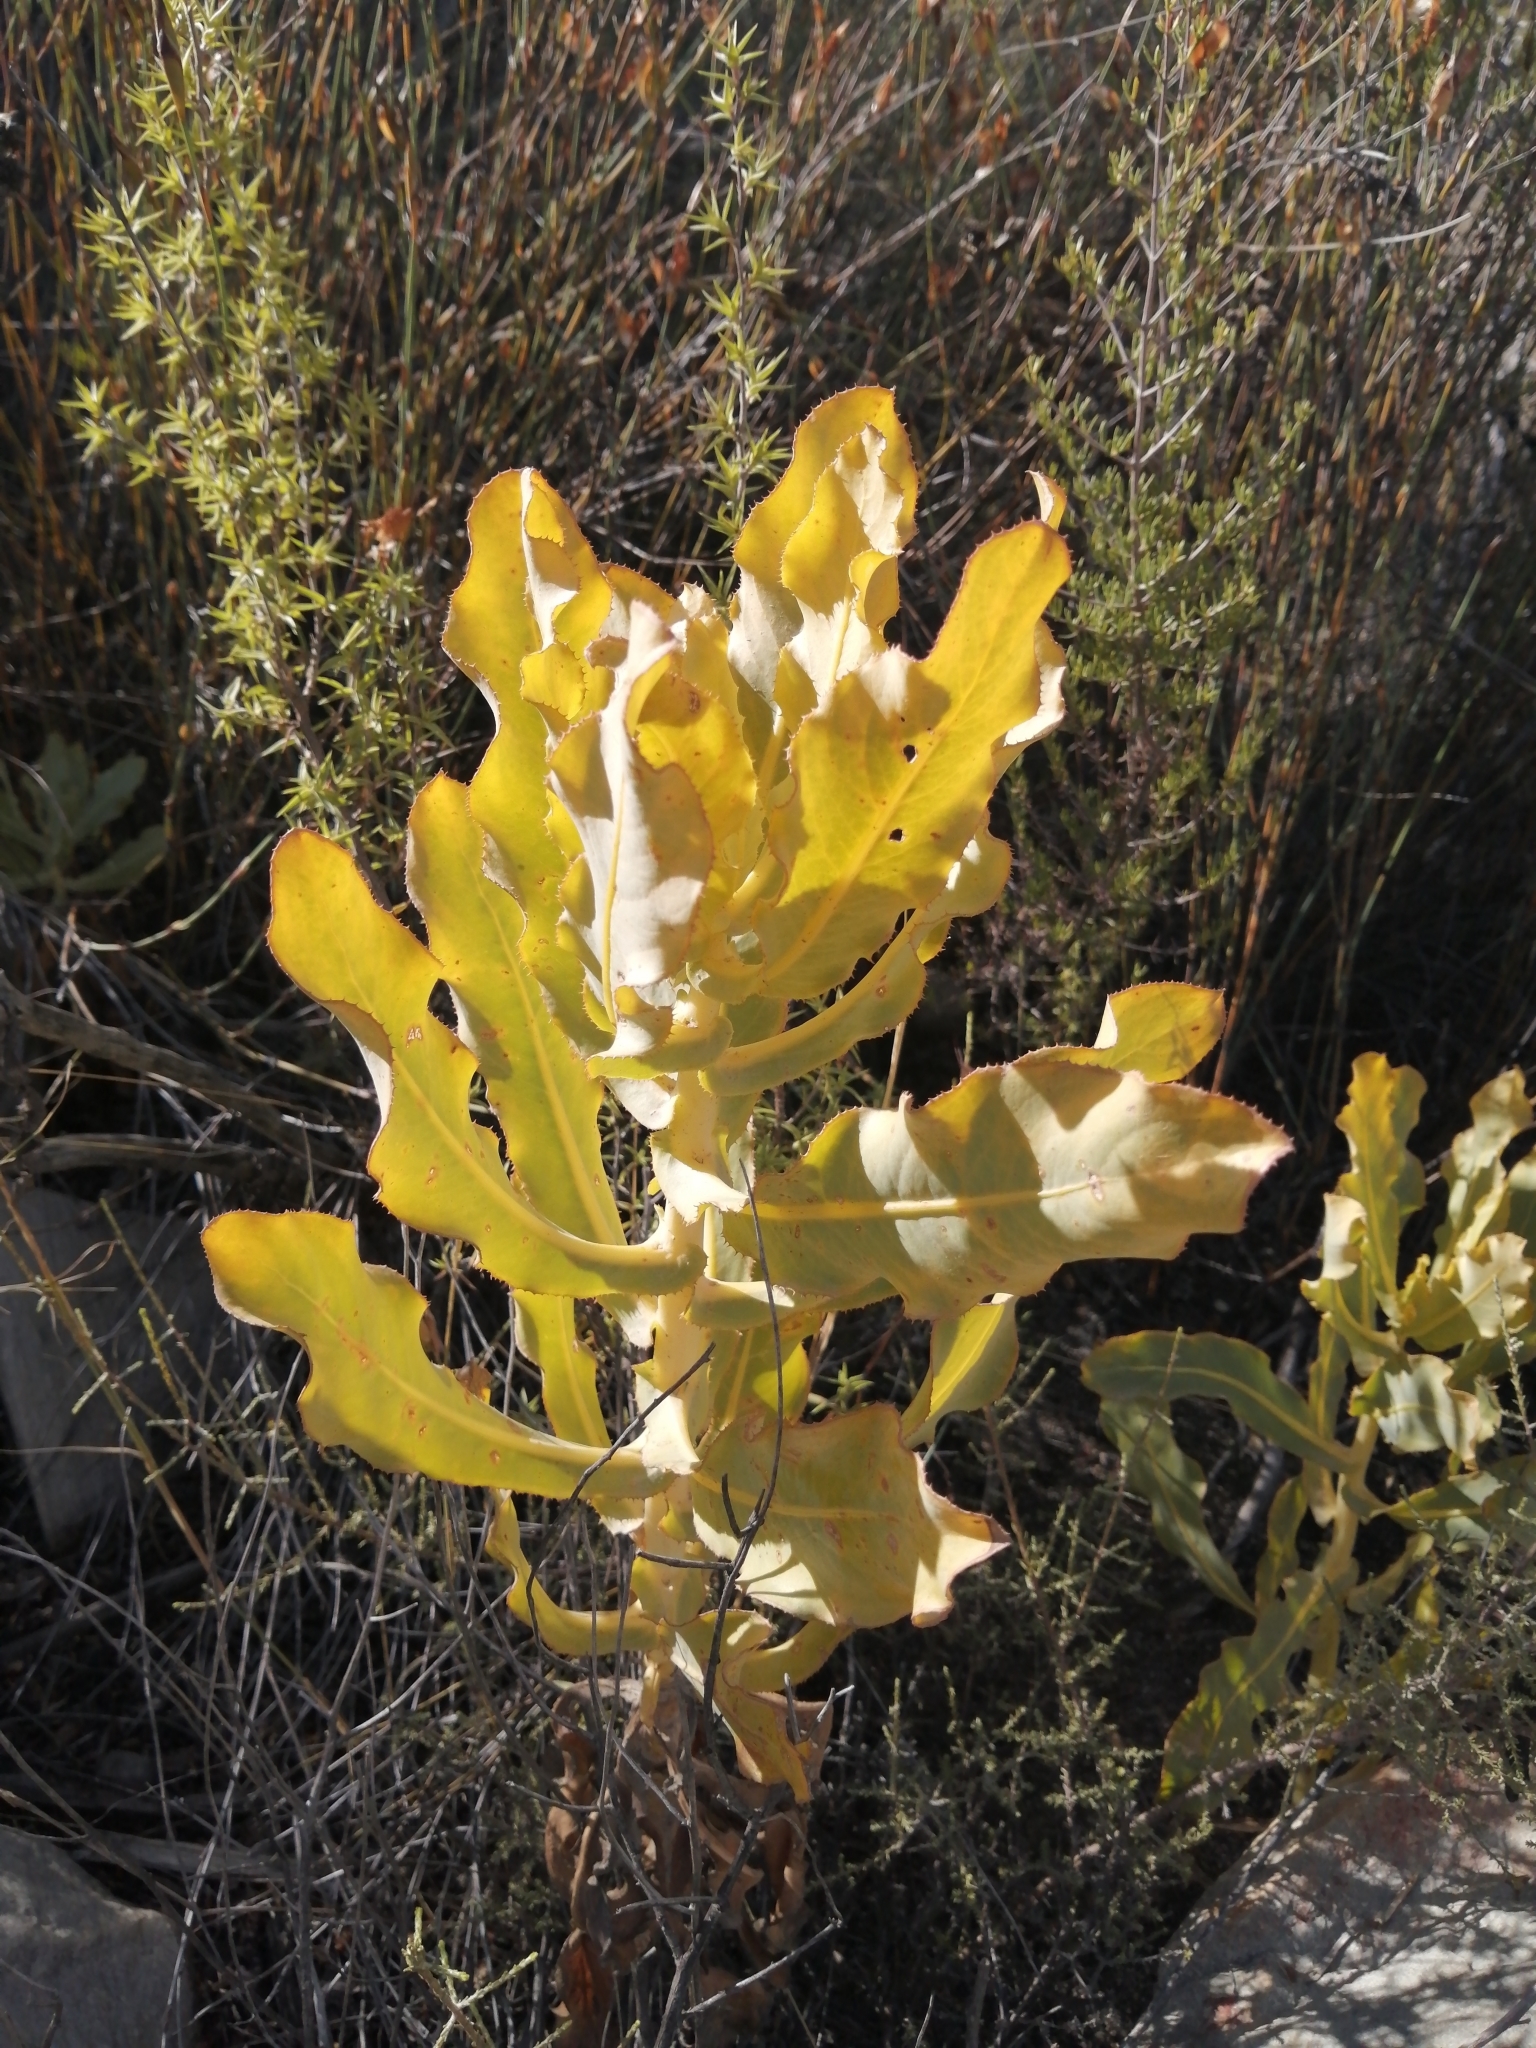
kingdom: Plantae
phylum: Tracheophyta
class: Magnoliopsida
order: Asterales
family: Asteraceae
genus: Othonna
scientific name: Othonna parviflora
